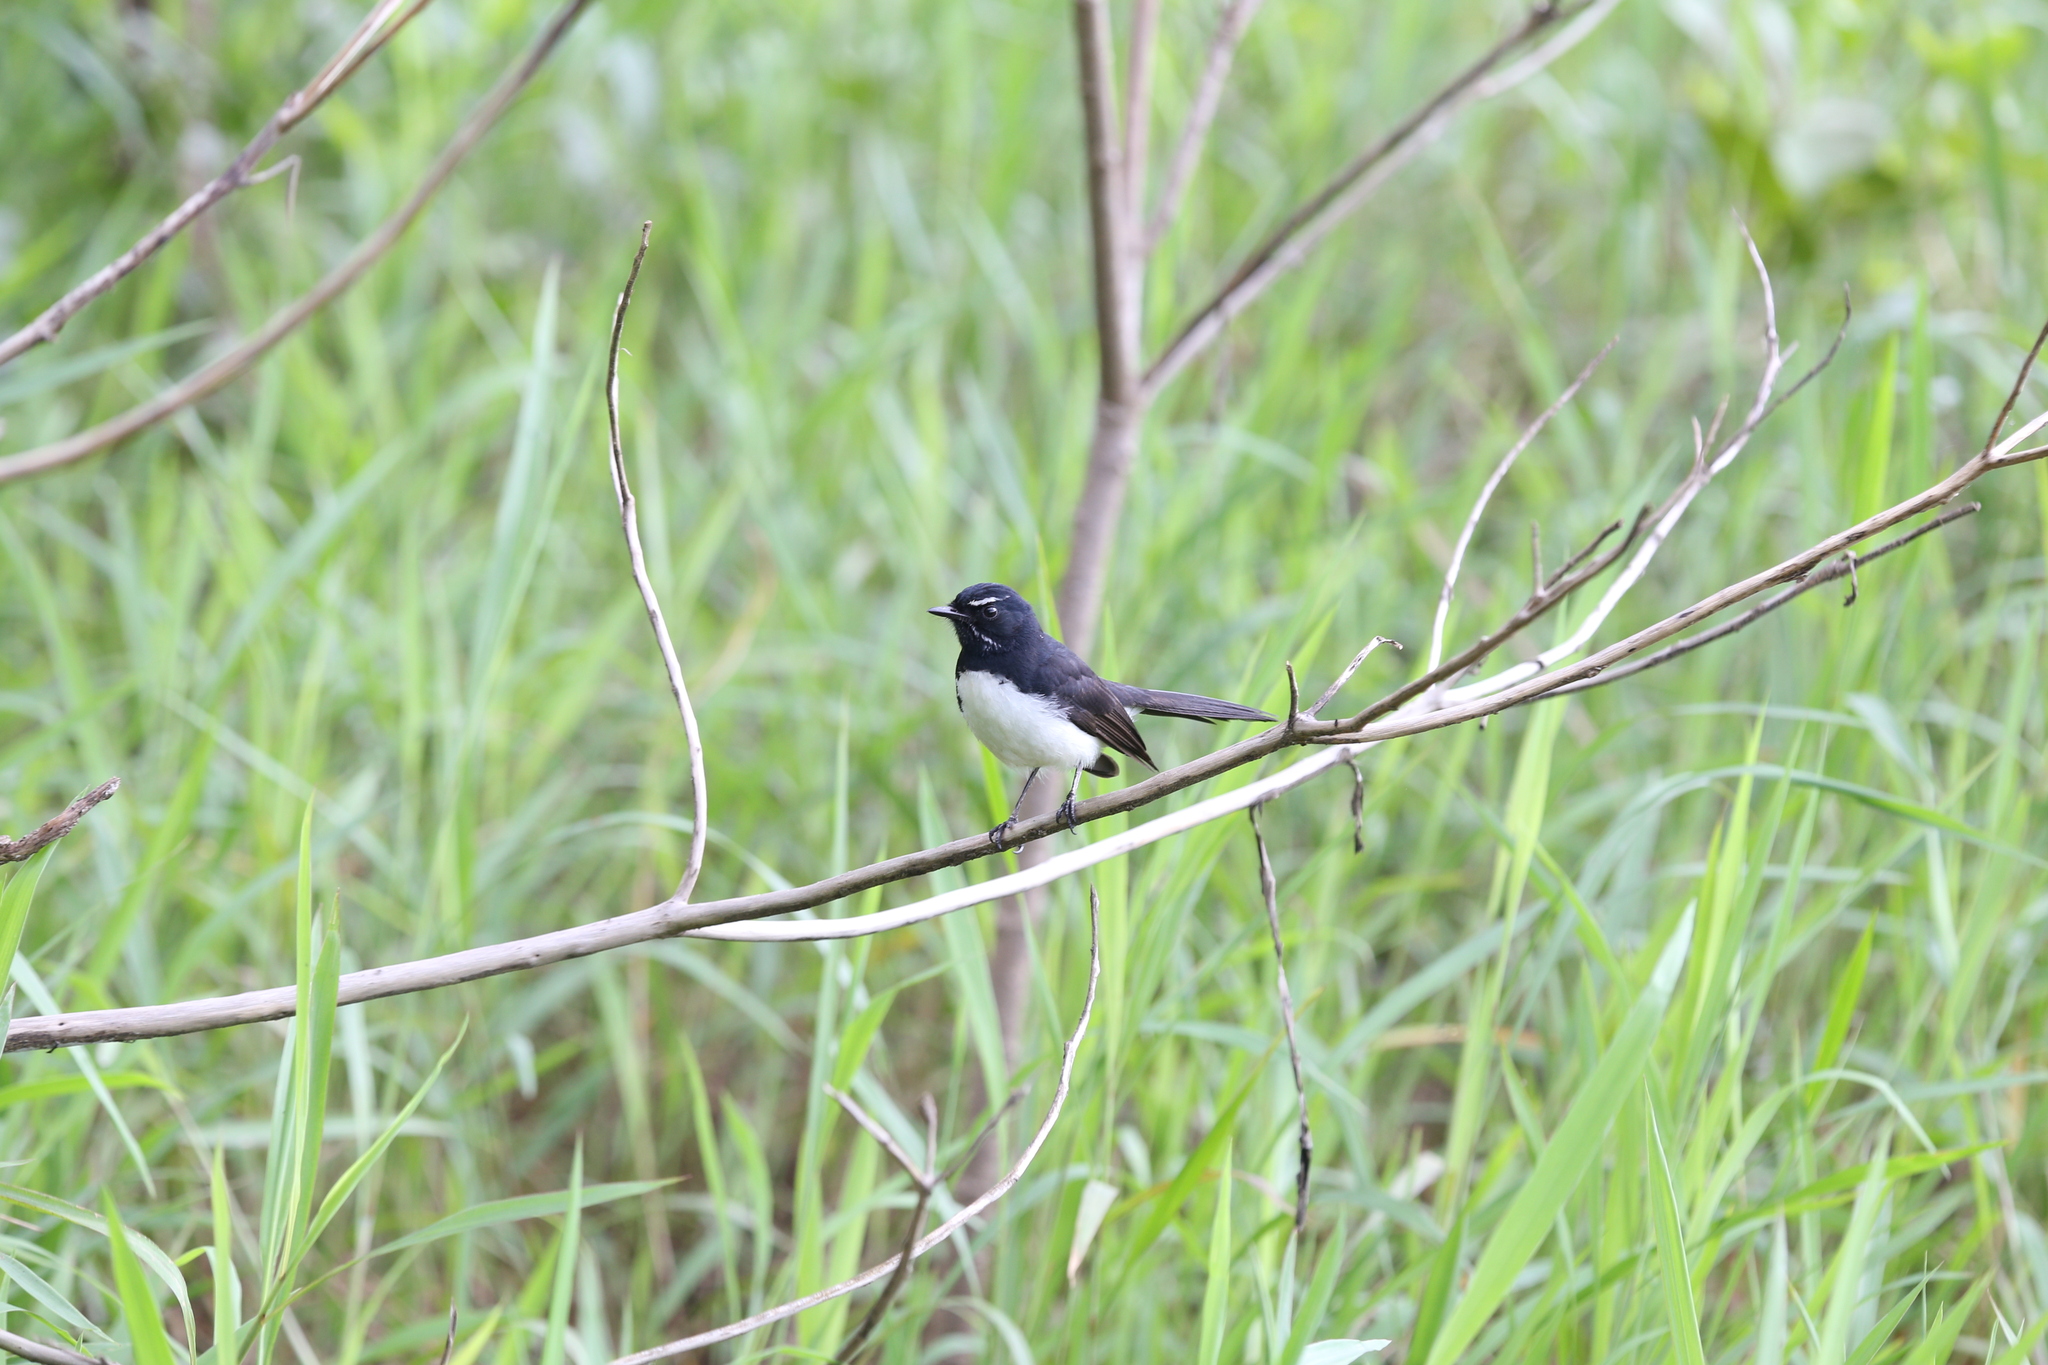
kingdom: Animalia
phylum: Chordata
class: Aves
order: Passeriformes
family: Rhipiduridae
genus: Rhipidura
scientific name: Rhipidura leucophrys
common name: Willie wagtail
